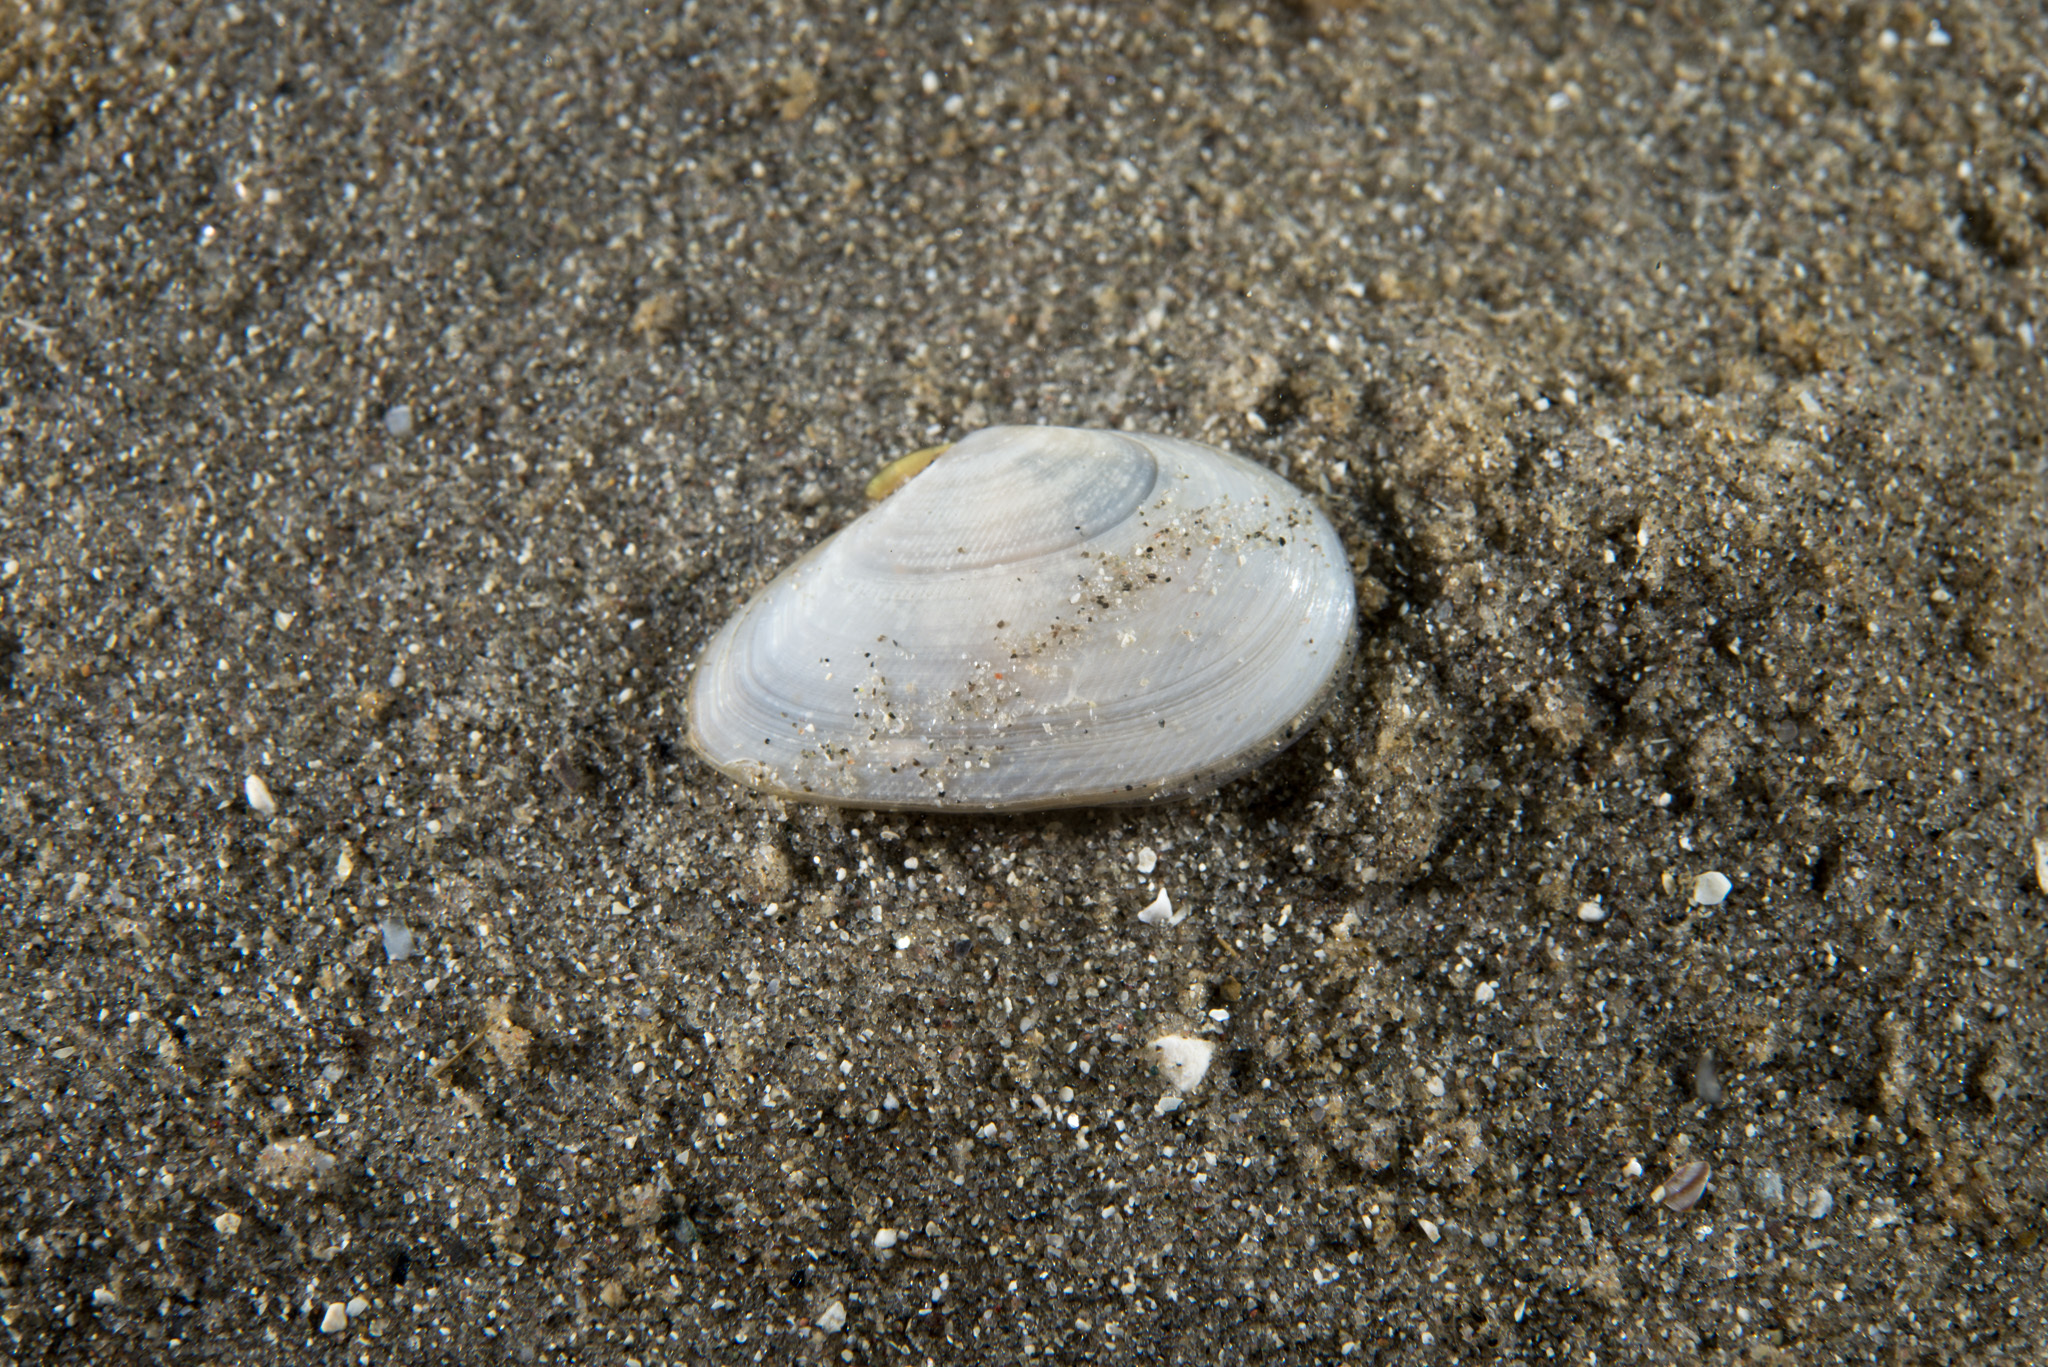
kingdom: Animalia
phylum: Mollusca
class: Bivalvia
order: Cardiida
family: Tellinidae
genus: Fabulina
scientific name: Fabulina fabula
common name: Bean-like tellin
